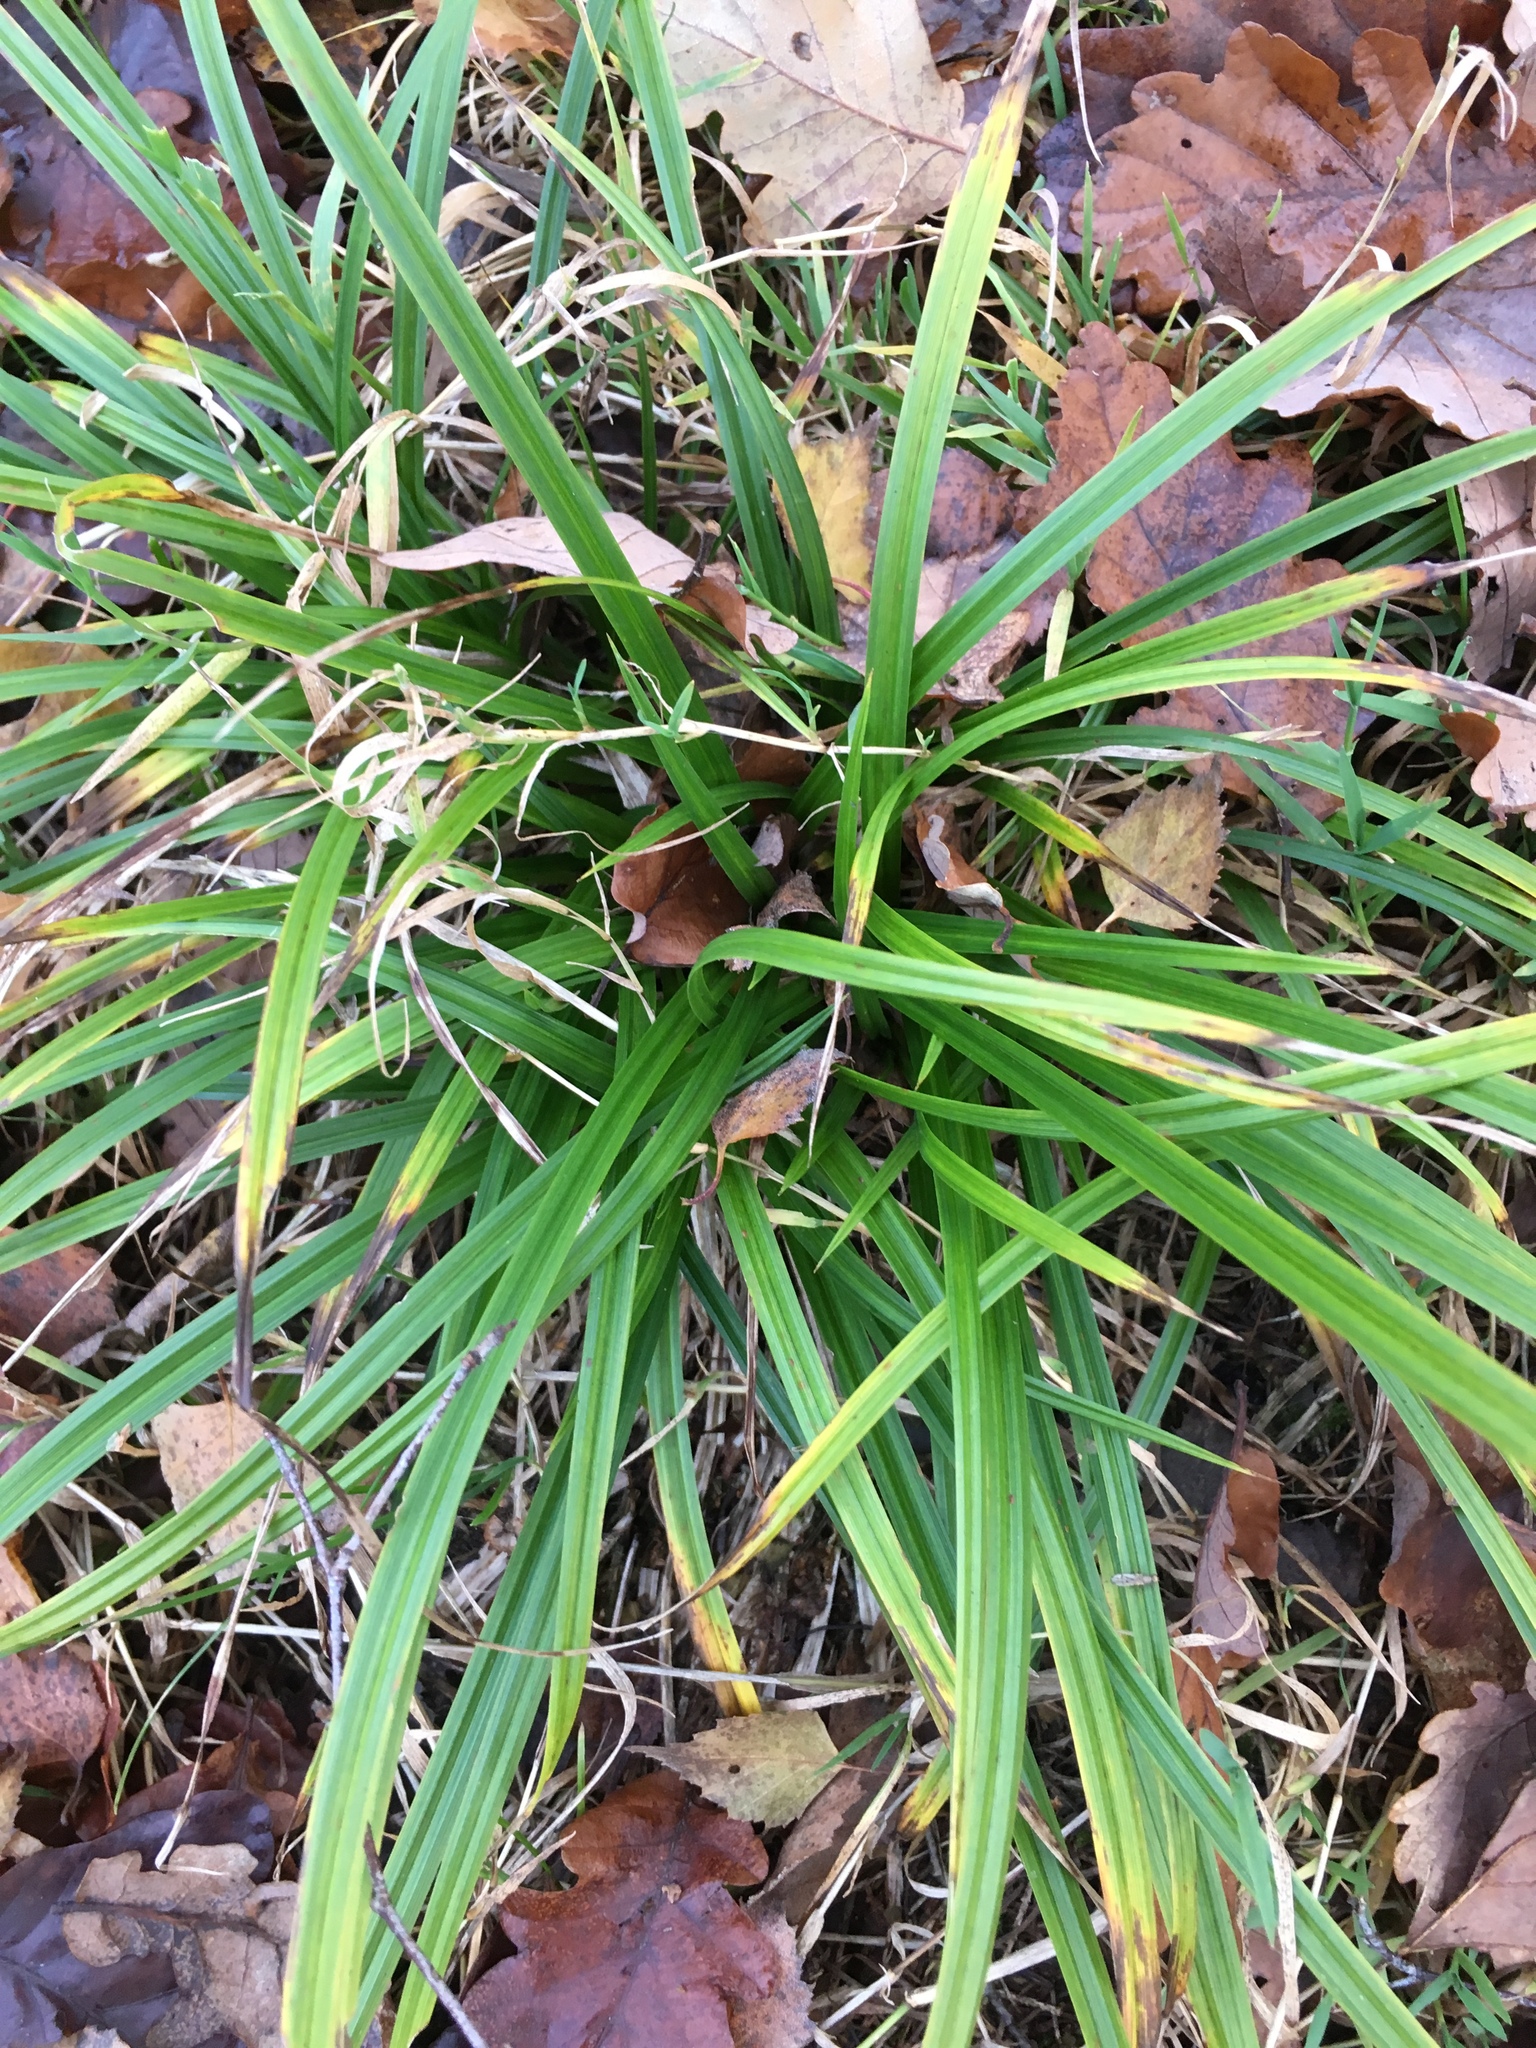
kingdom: Plantae
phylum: Tracheophyta
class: Liliopsida
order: Poales
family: Cyperaceae
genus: Carex
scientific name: Carex sylvatica
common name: Wood-sedge
